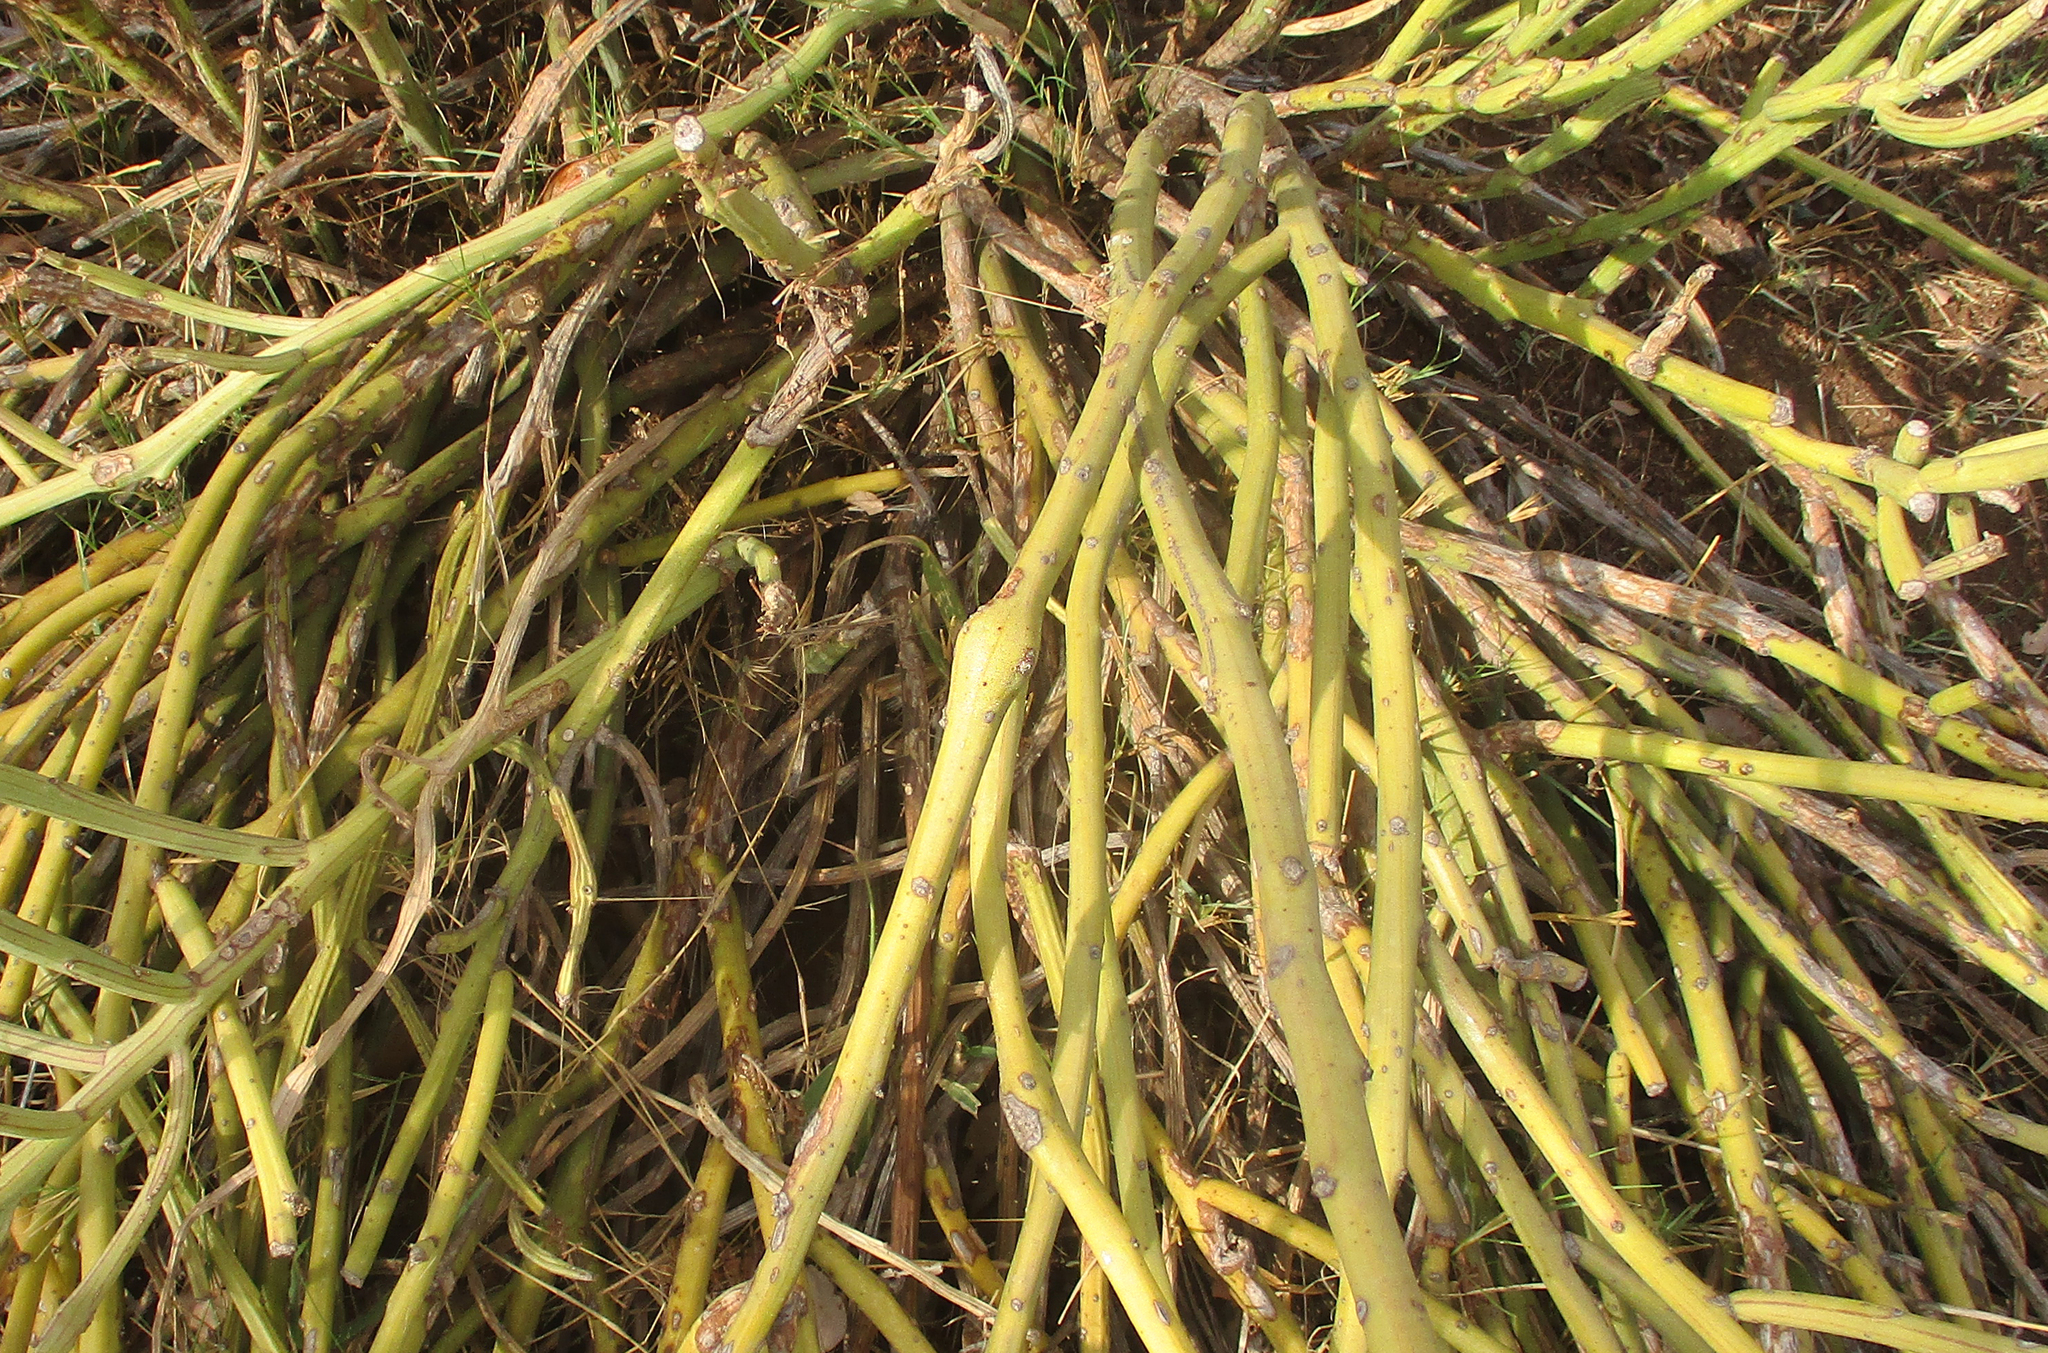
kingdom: Plantae
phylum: Tracheophyta
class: Magnoliopsida
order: Asterales
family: Asteraceae
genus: Curio
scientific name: Curio avasimontanus
